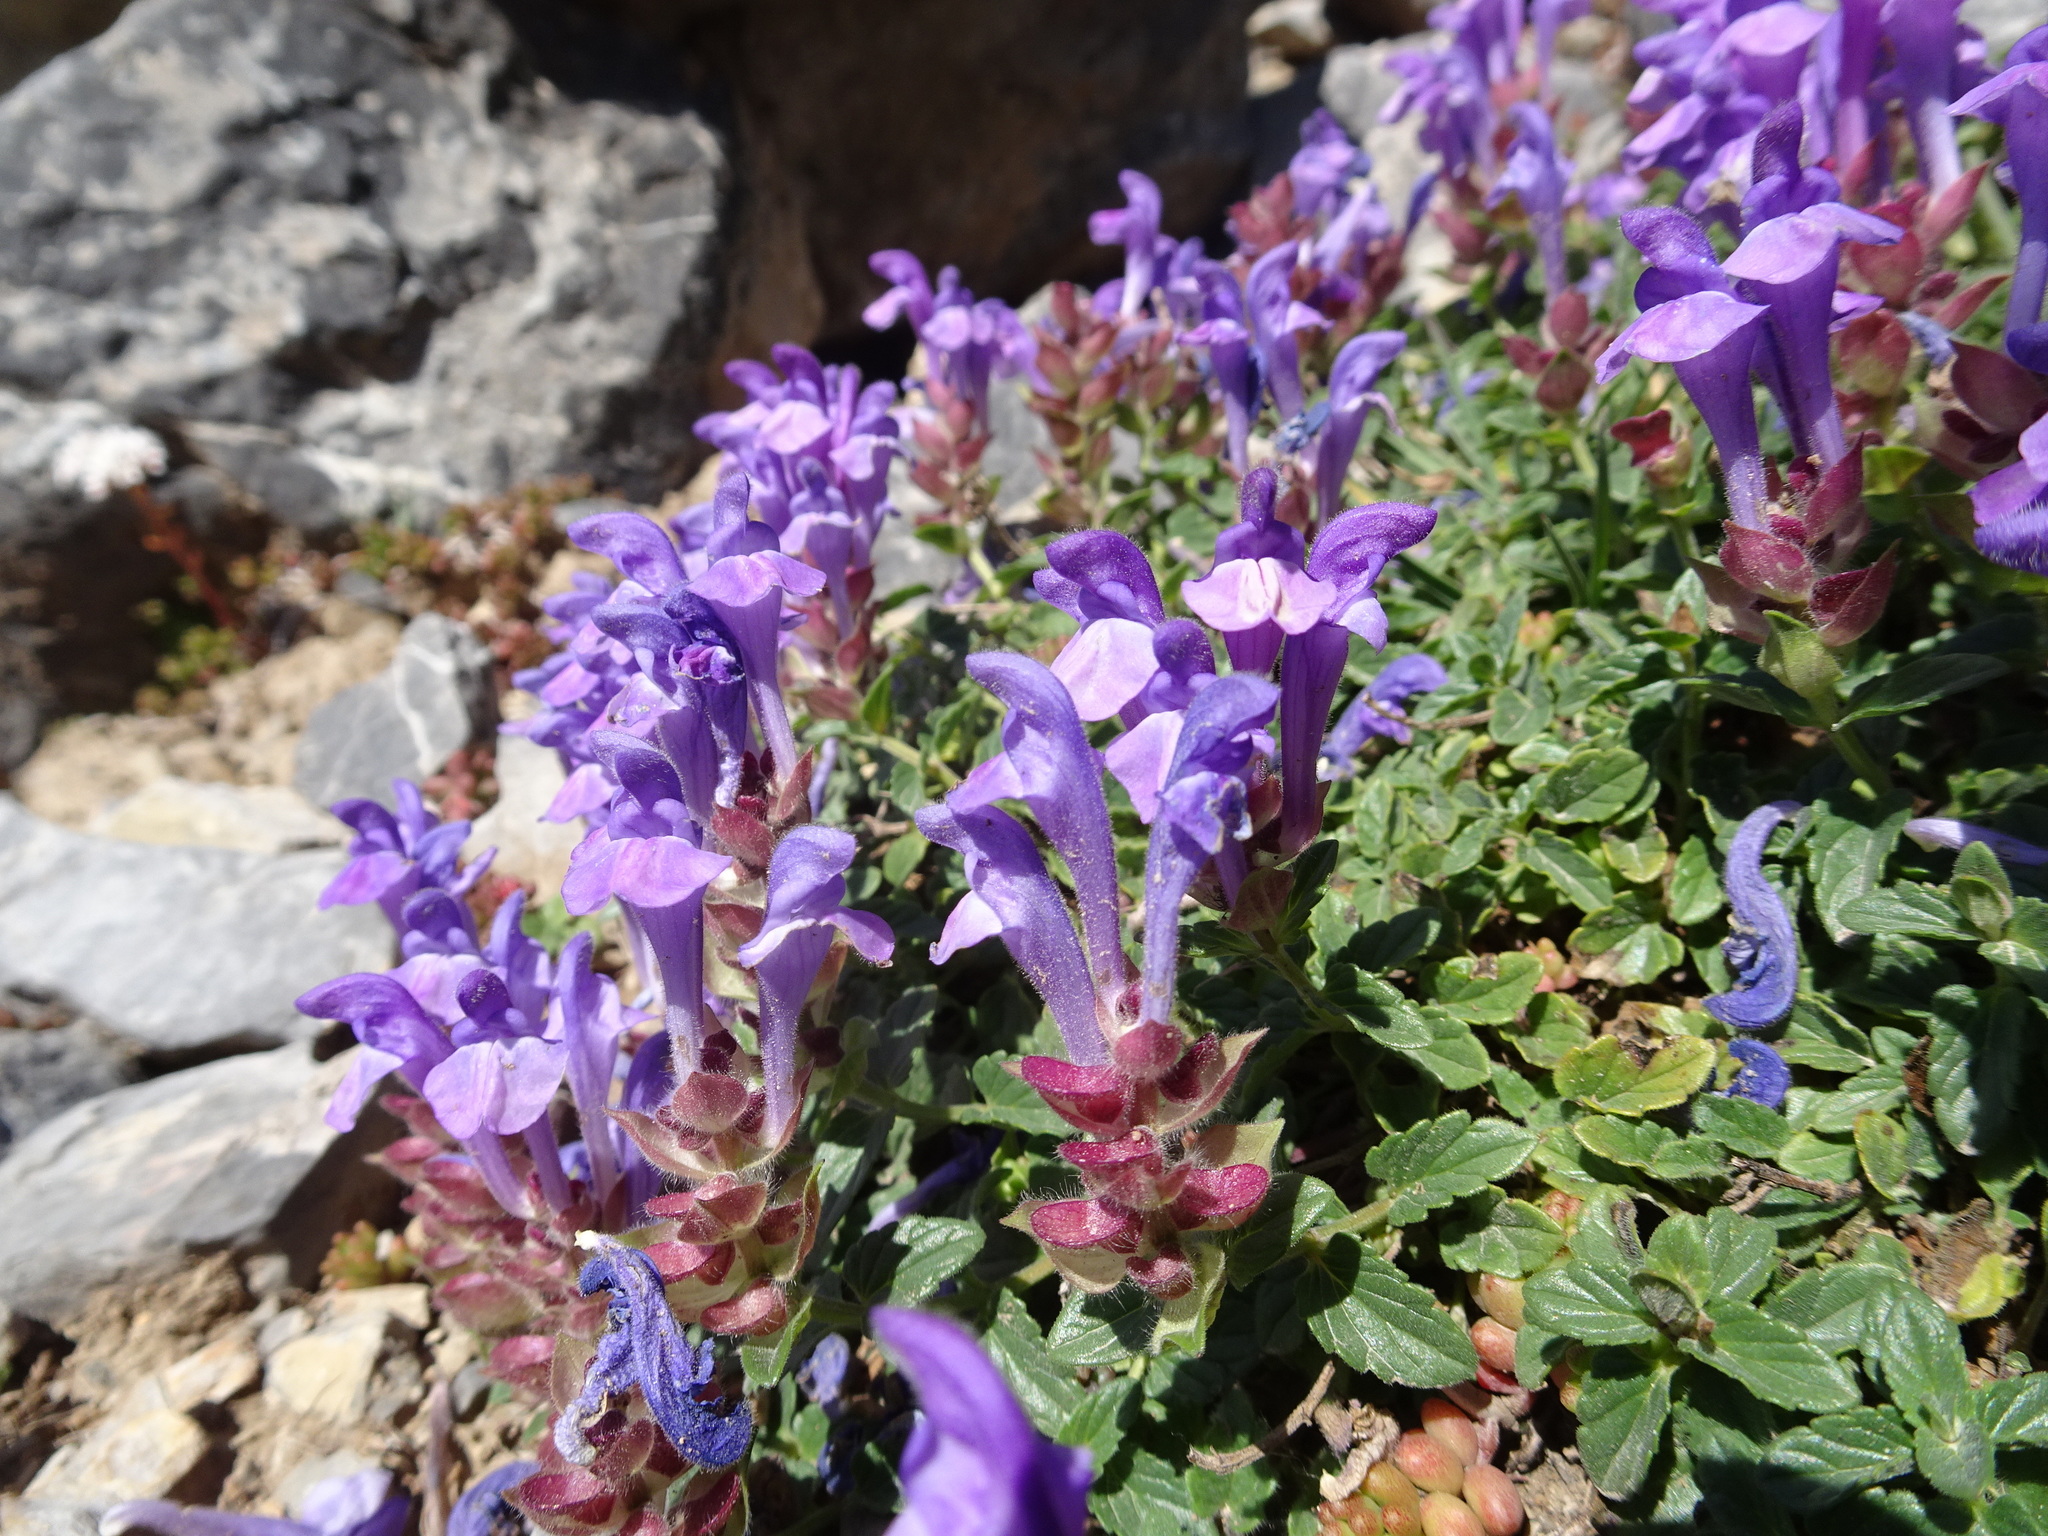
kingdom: Plantae
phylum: Tracheophyta
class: Magnoliopsida
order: Lamiales
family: Lamiaceae
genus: Scutellaria
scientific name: Scutellaria alpina
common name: Alpine scullcap
